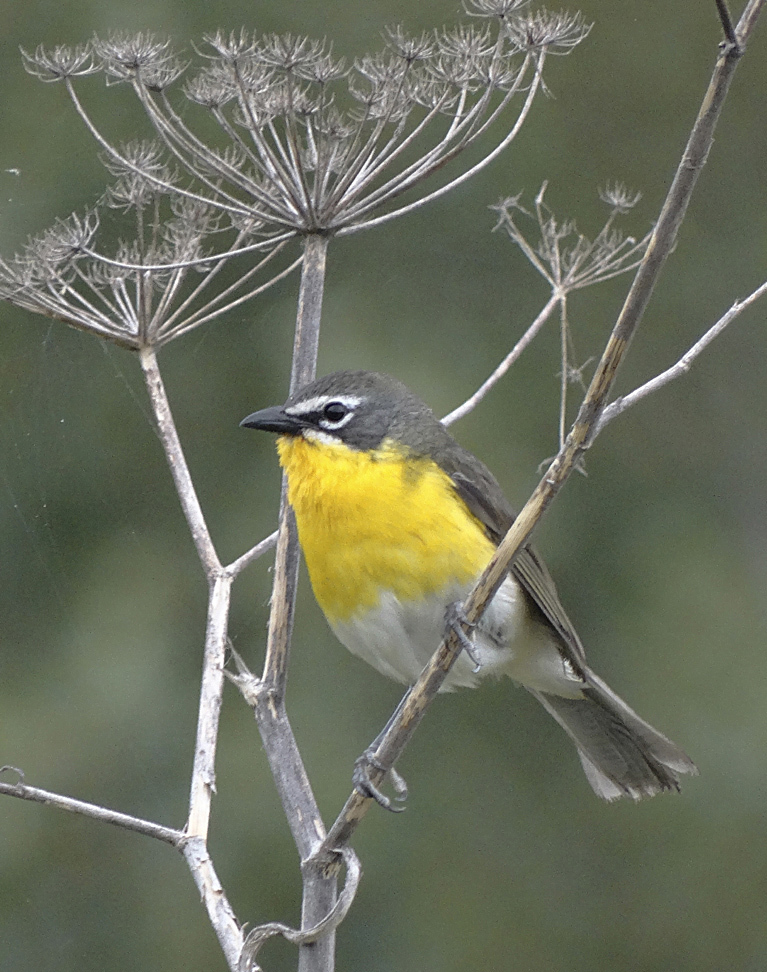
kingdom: Animalia
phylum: Chordata
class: Aves
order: Passeriformes
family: Parulidae
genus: Icteria
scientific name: Icteria virens
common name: Yellow-breasted chat
